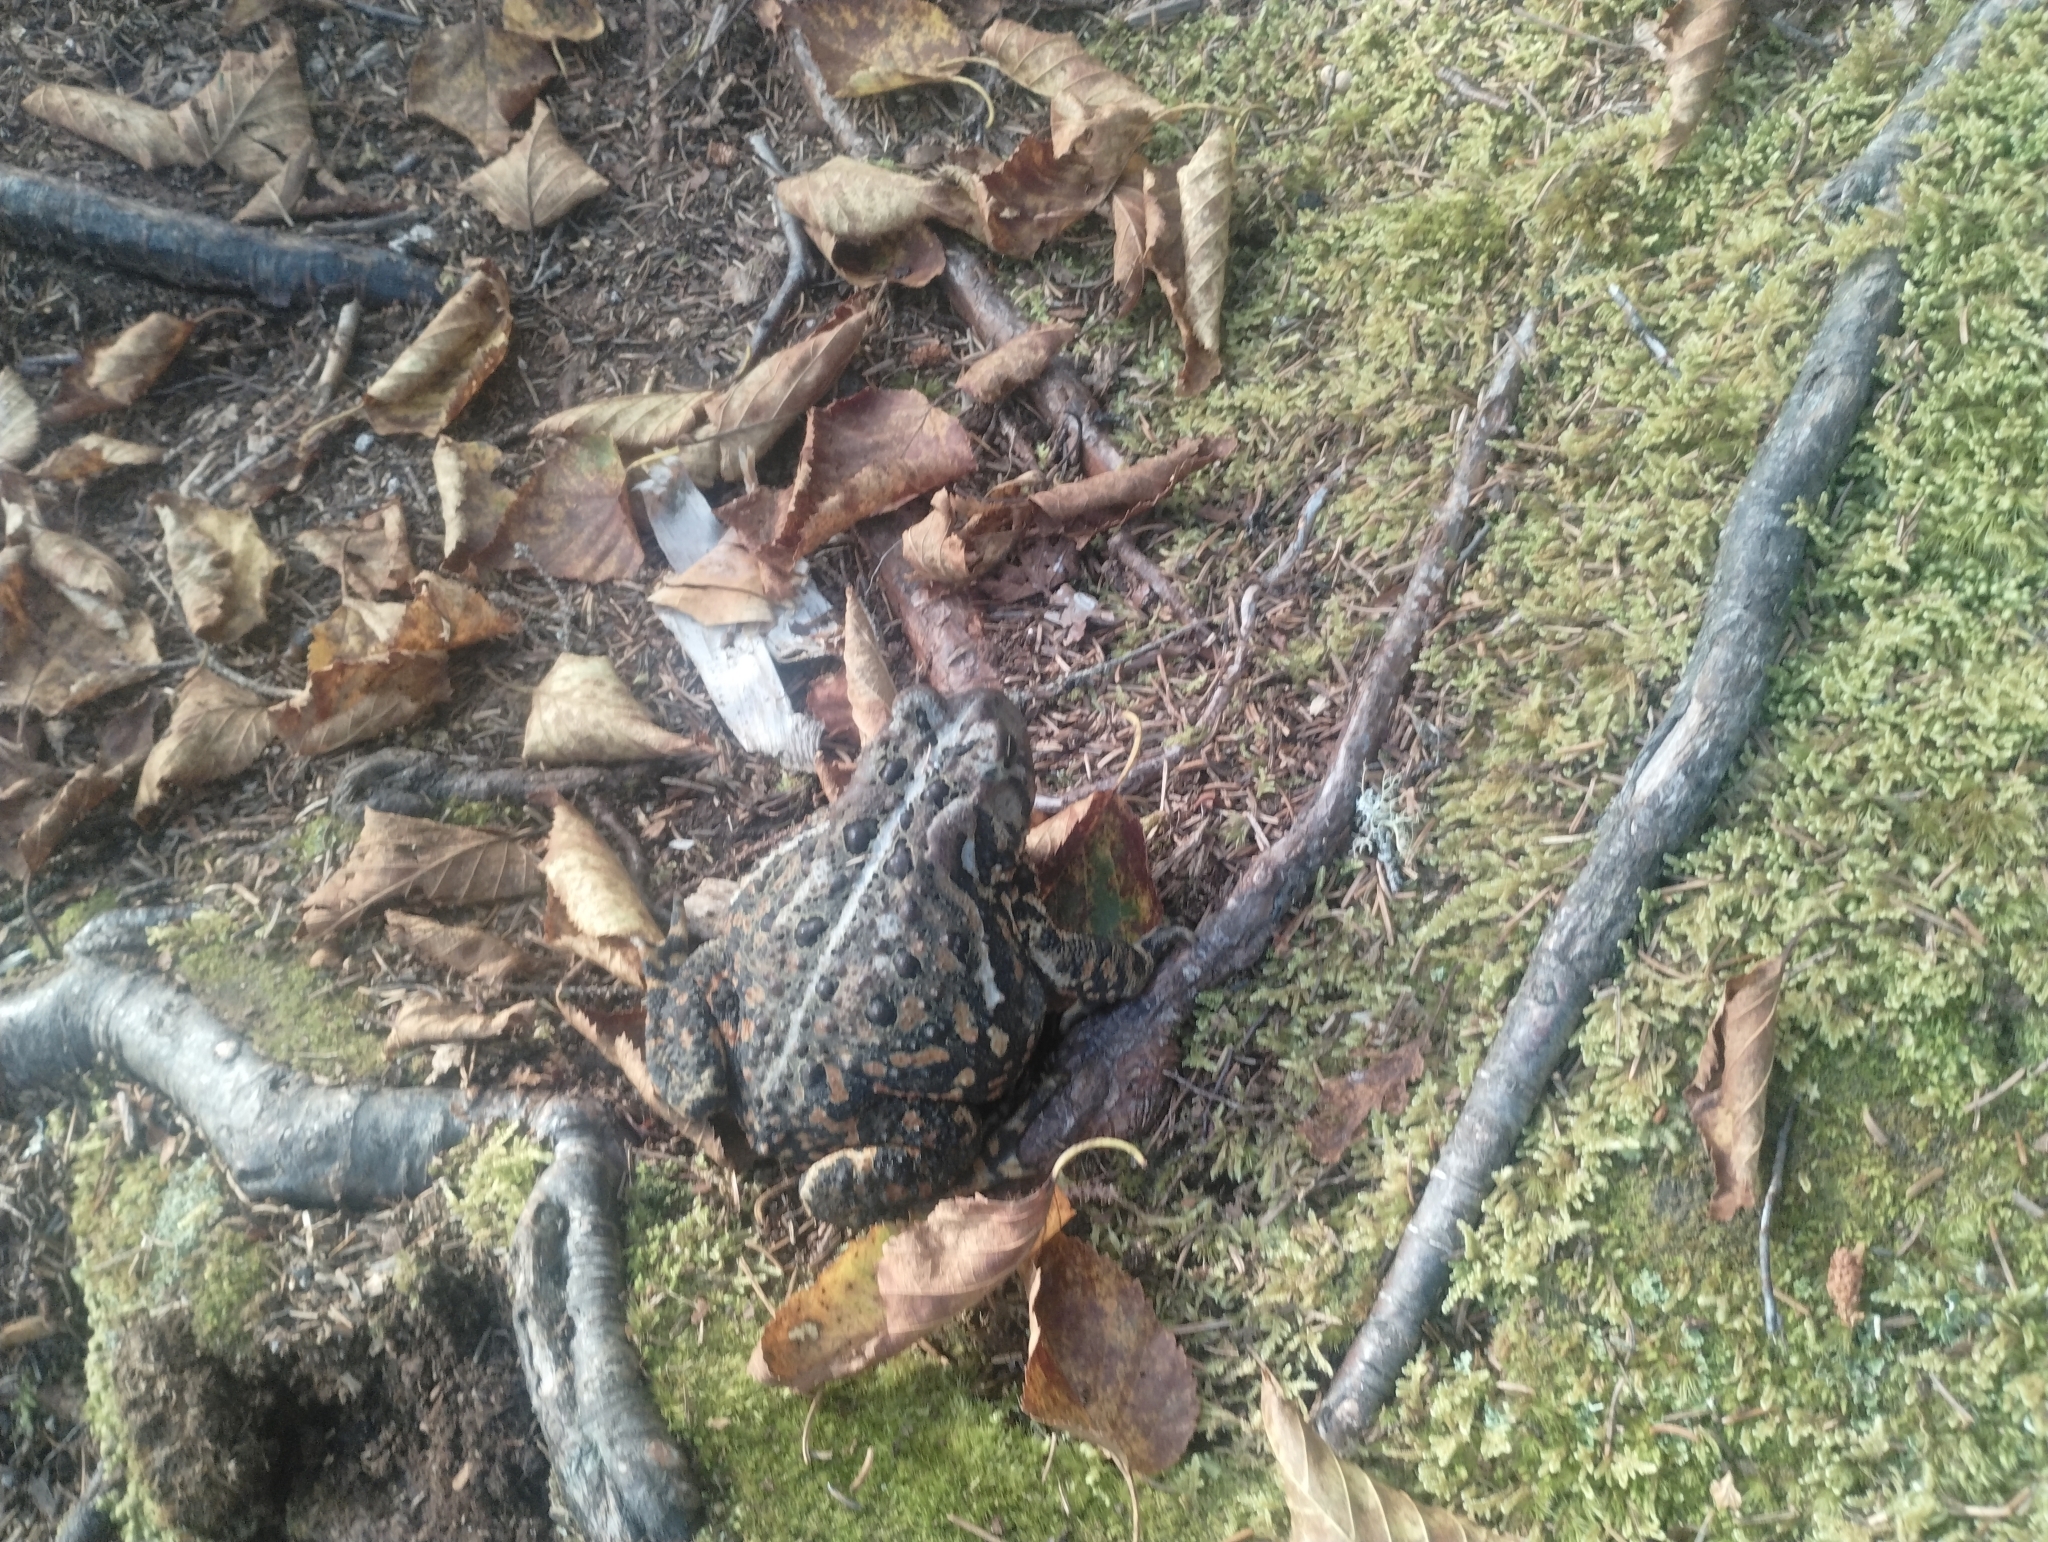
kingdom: Animalia
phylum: Chordata
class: Amphibia
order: Anura
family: Bufonidae
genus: Anaxyrus
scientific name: Anaxyrus americanus
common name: American toad
